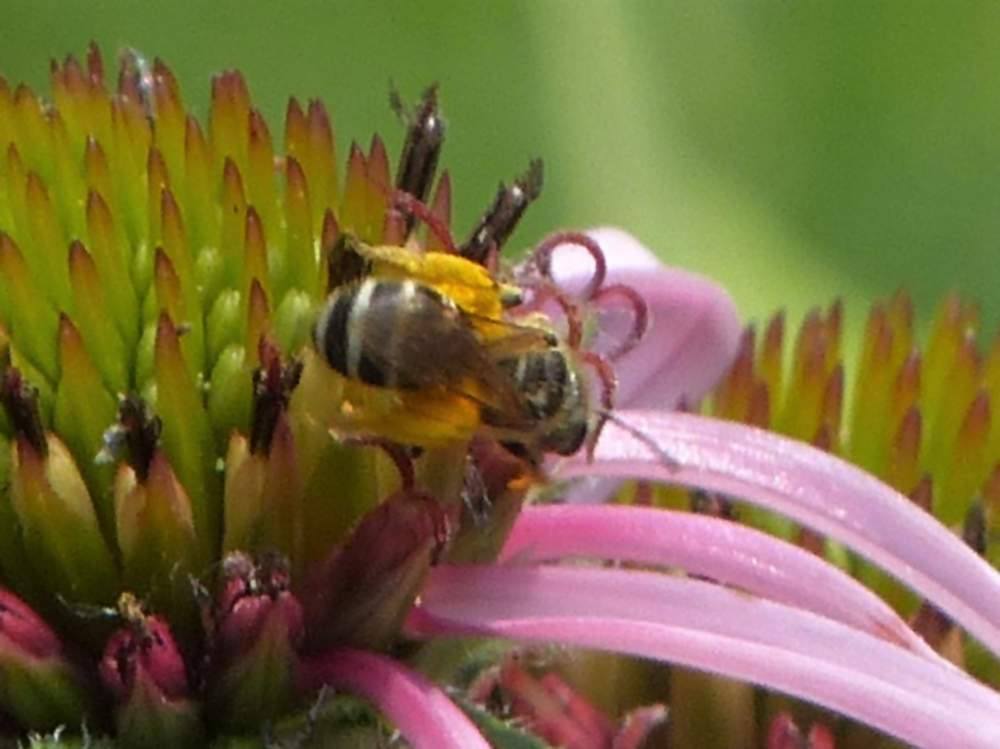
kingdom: Animalia
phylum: Arthropoda
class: Insecta
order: Hymenoptera
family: Halictidae
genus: Halictus
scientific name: Halictus ligatus
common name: Ligated furrow bee
